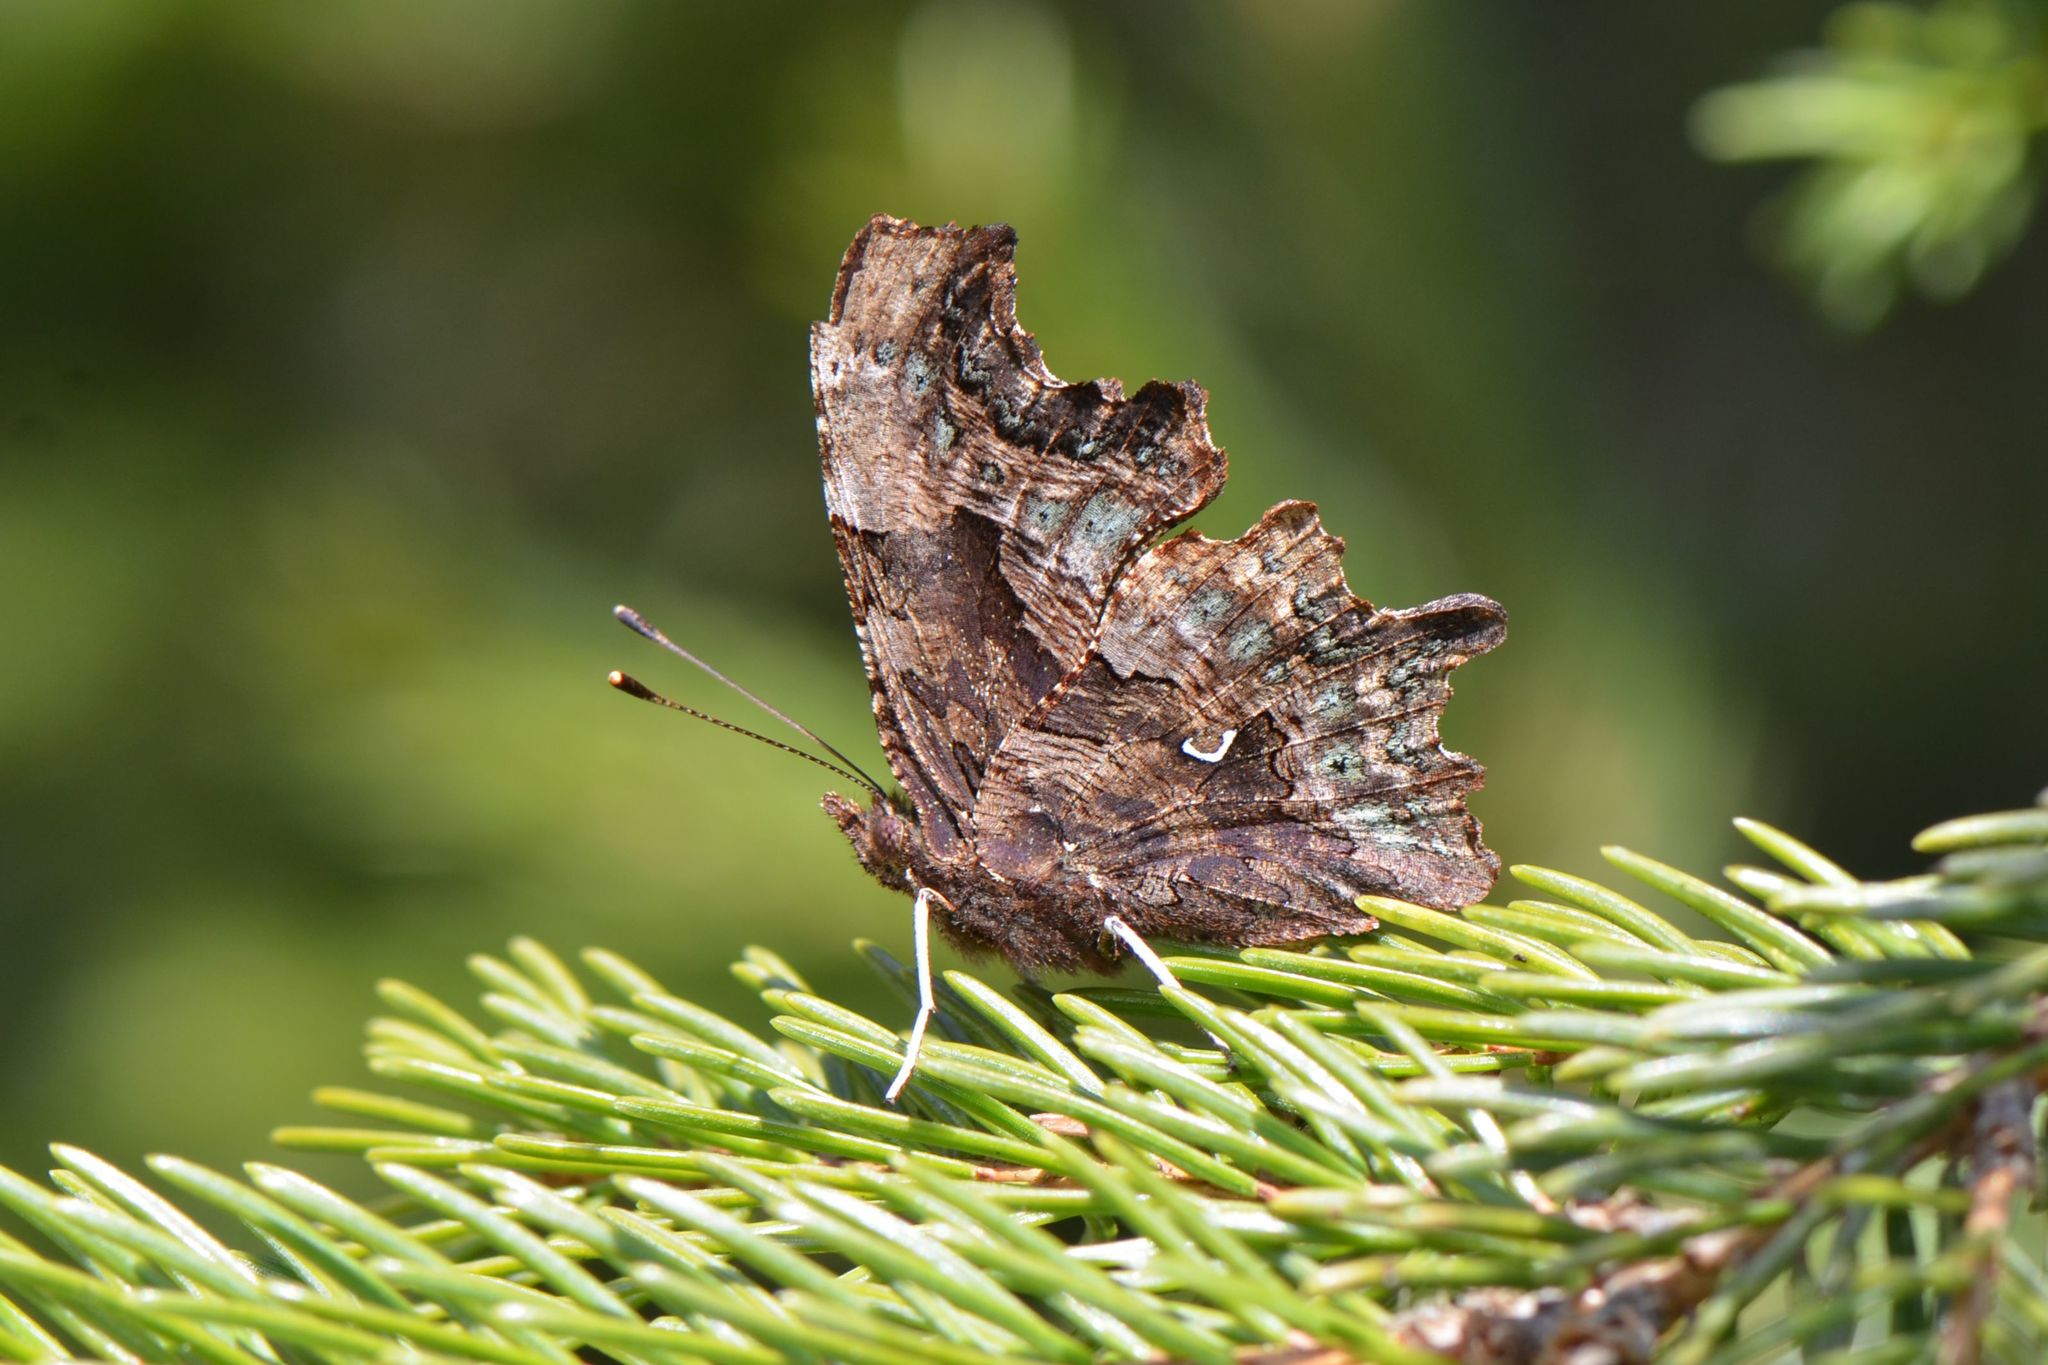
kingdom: Animalia
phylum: Arthropoda
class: Insecta
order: Lepidoptera
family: Nymphalidae
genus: Polygonia
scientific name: Polygonia c-album
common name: Comma
